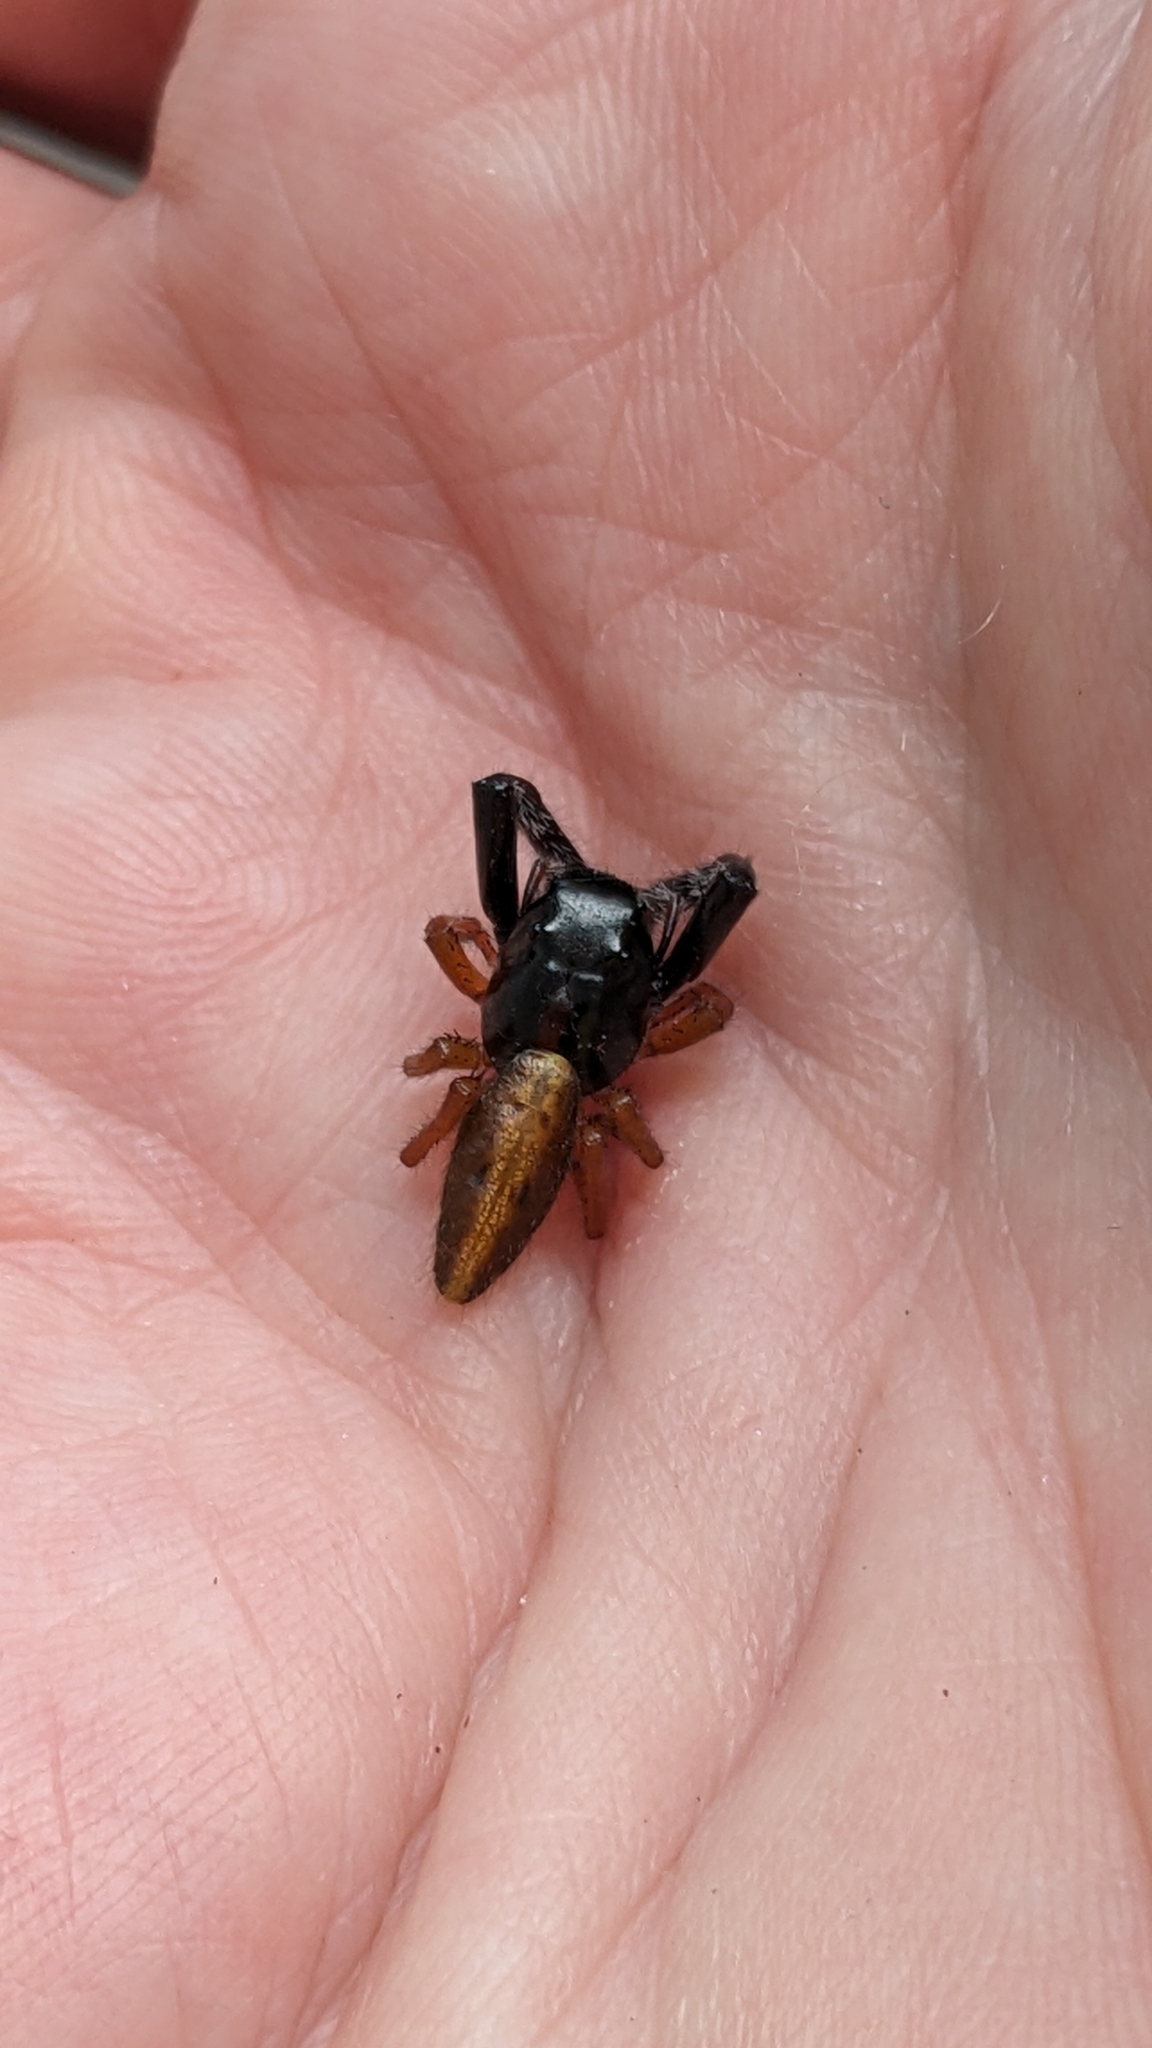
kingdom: Animalia
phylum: Arthropoda
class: Arachnida
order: Araneae
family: Salticidae
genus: Trite
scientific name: Trite planiceps
